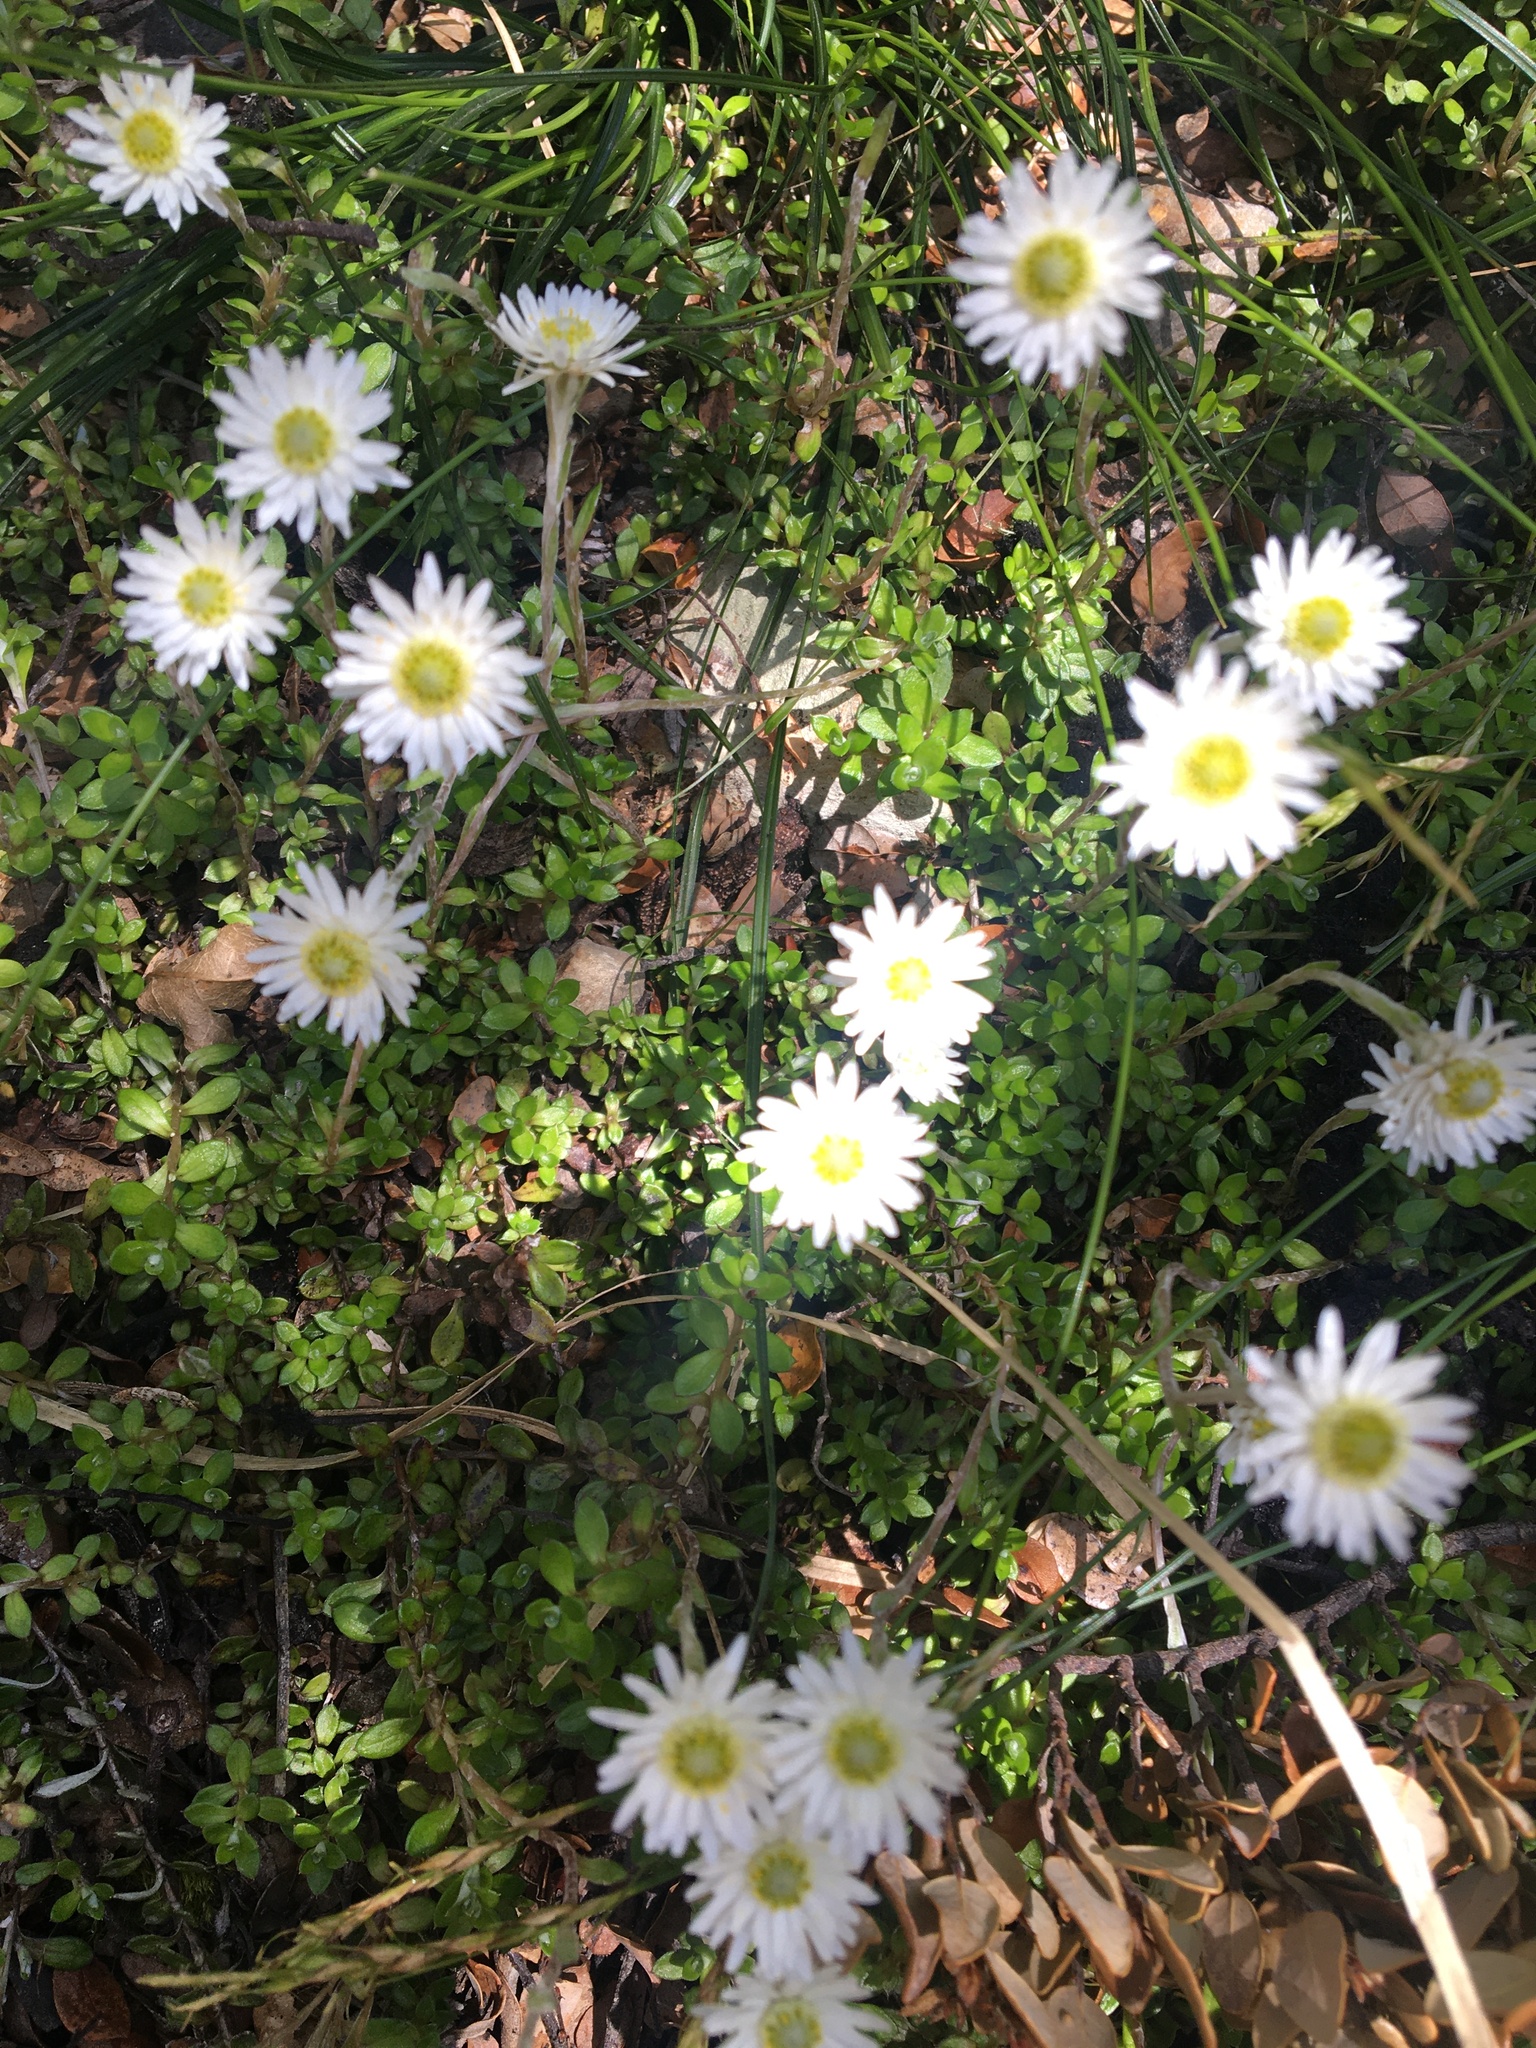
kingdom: Plantae
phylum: Tracheophyta
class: Magnoliopsida
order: Asterales
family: Asteraceae
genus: Anaphalioides
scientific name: Anaphalioides bellidioides
